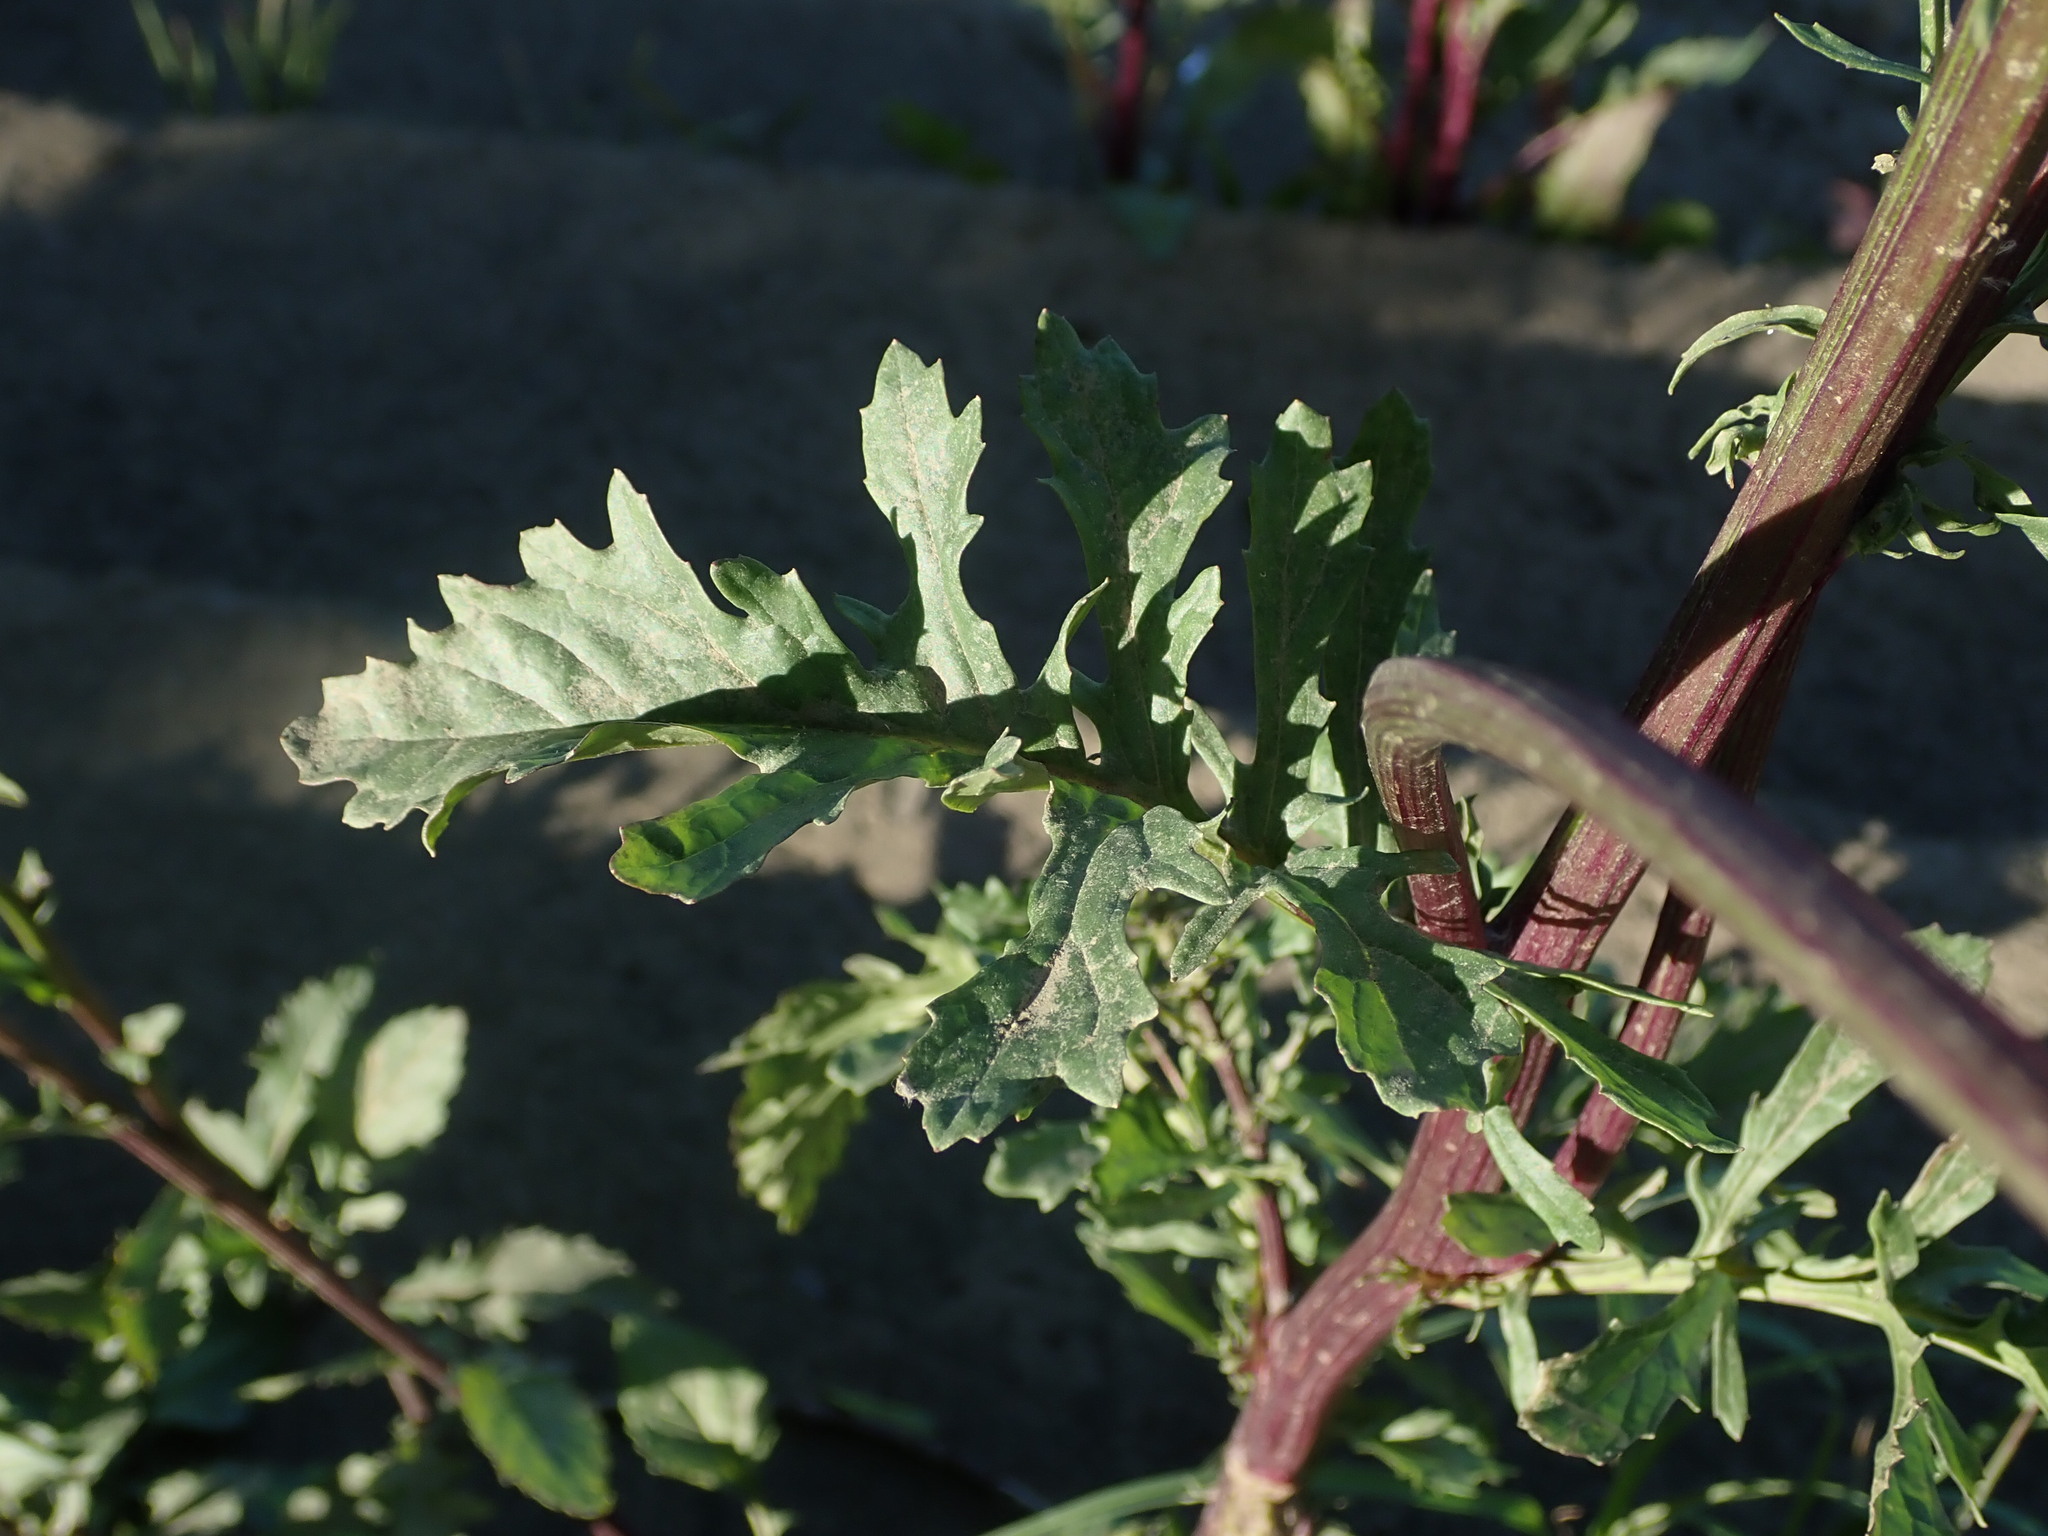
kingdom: Plantae
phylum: Tracheophyta
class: Magnoliopsida
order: Asterales
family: Asteraceae
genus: Jacobaea
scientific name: Jacobaea aquatica
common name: Water ragwort
